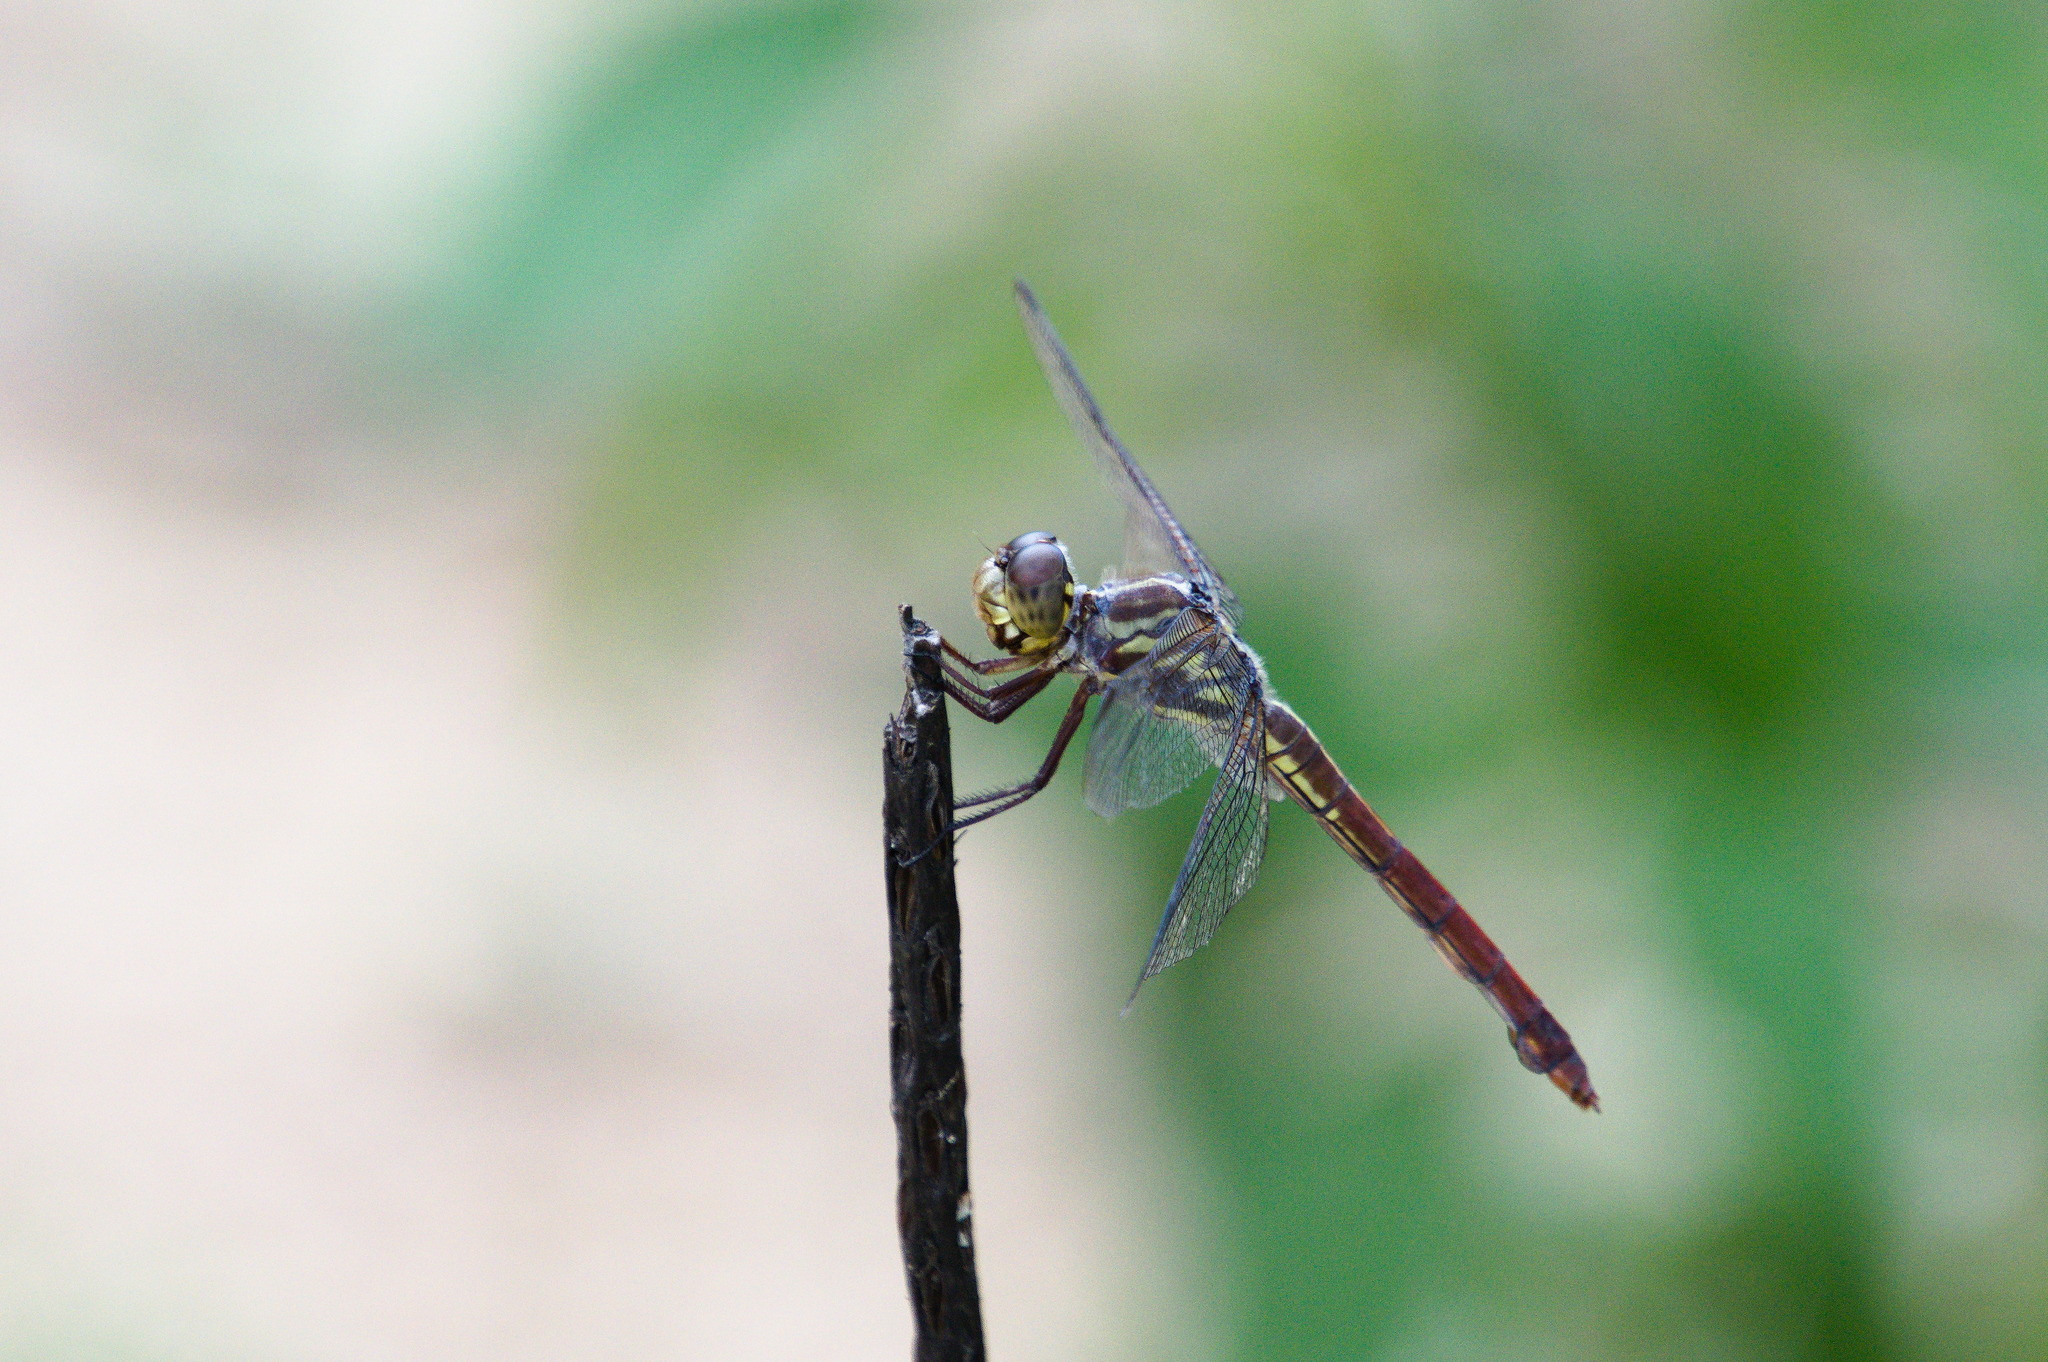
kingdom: Animalia
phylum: Arthropoda
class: Insecta
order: Odonata
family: Libellulidae
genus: Orthemis
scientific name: Orthemis aequilibris
